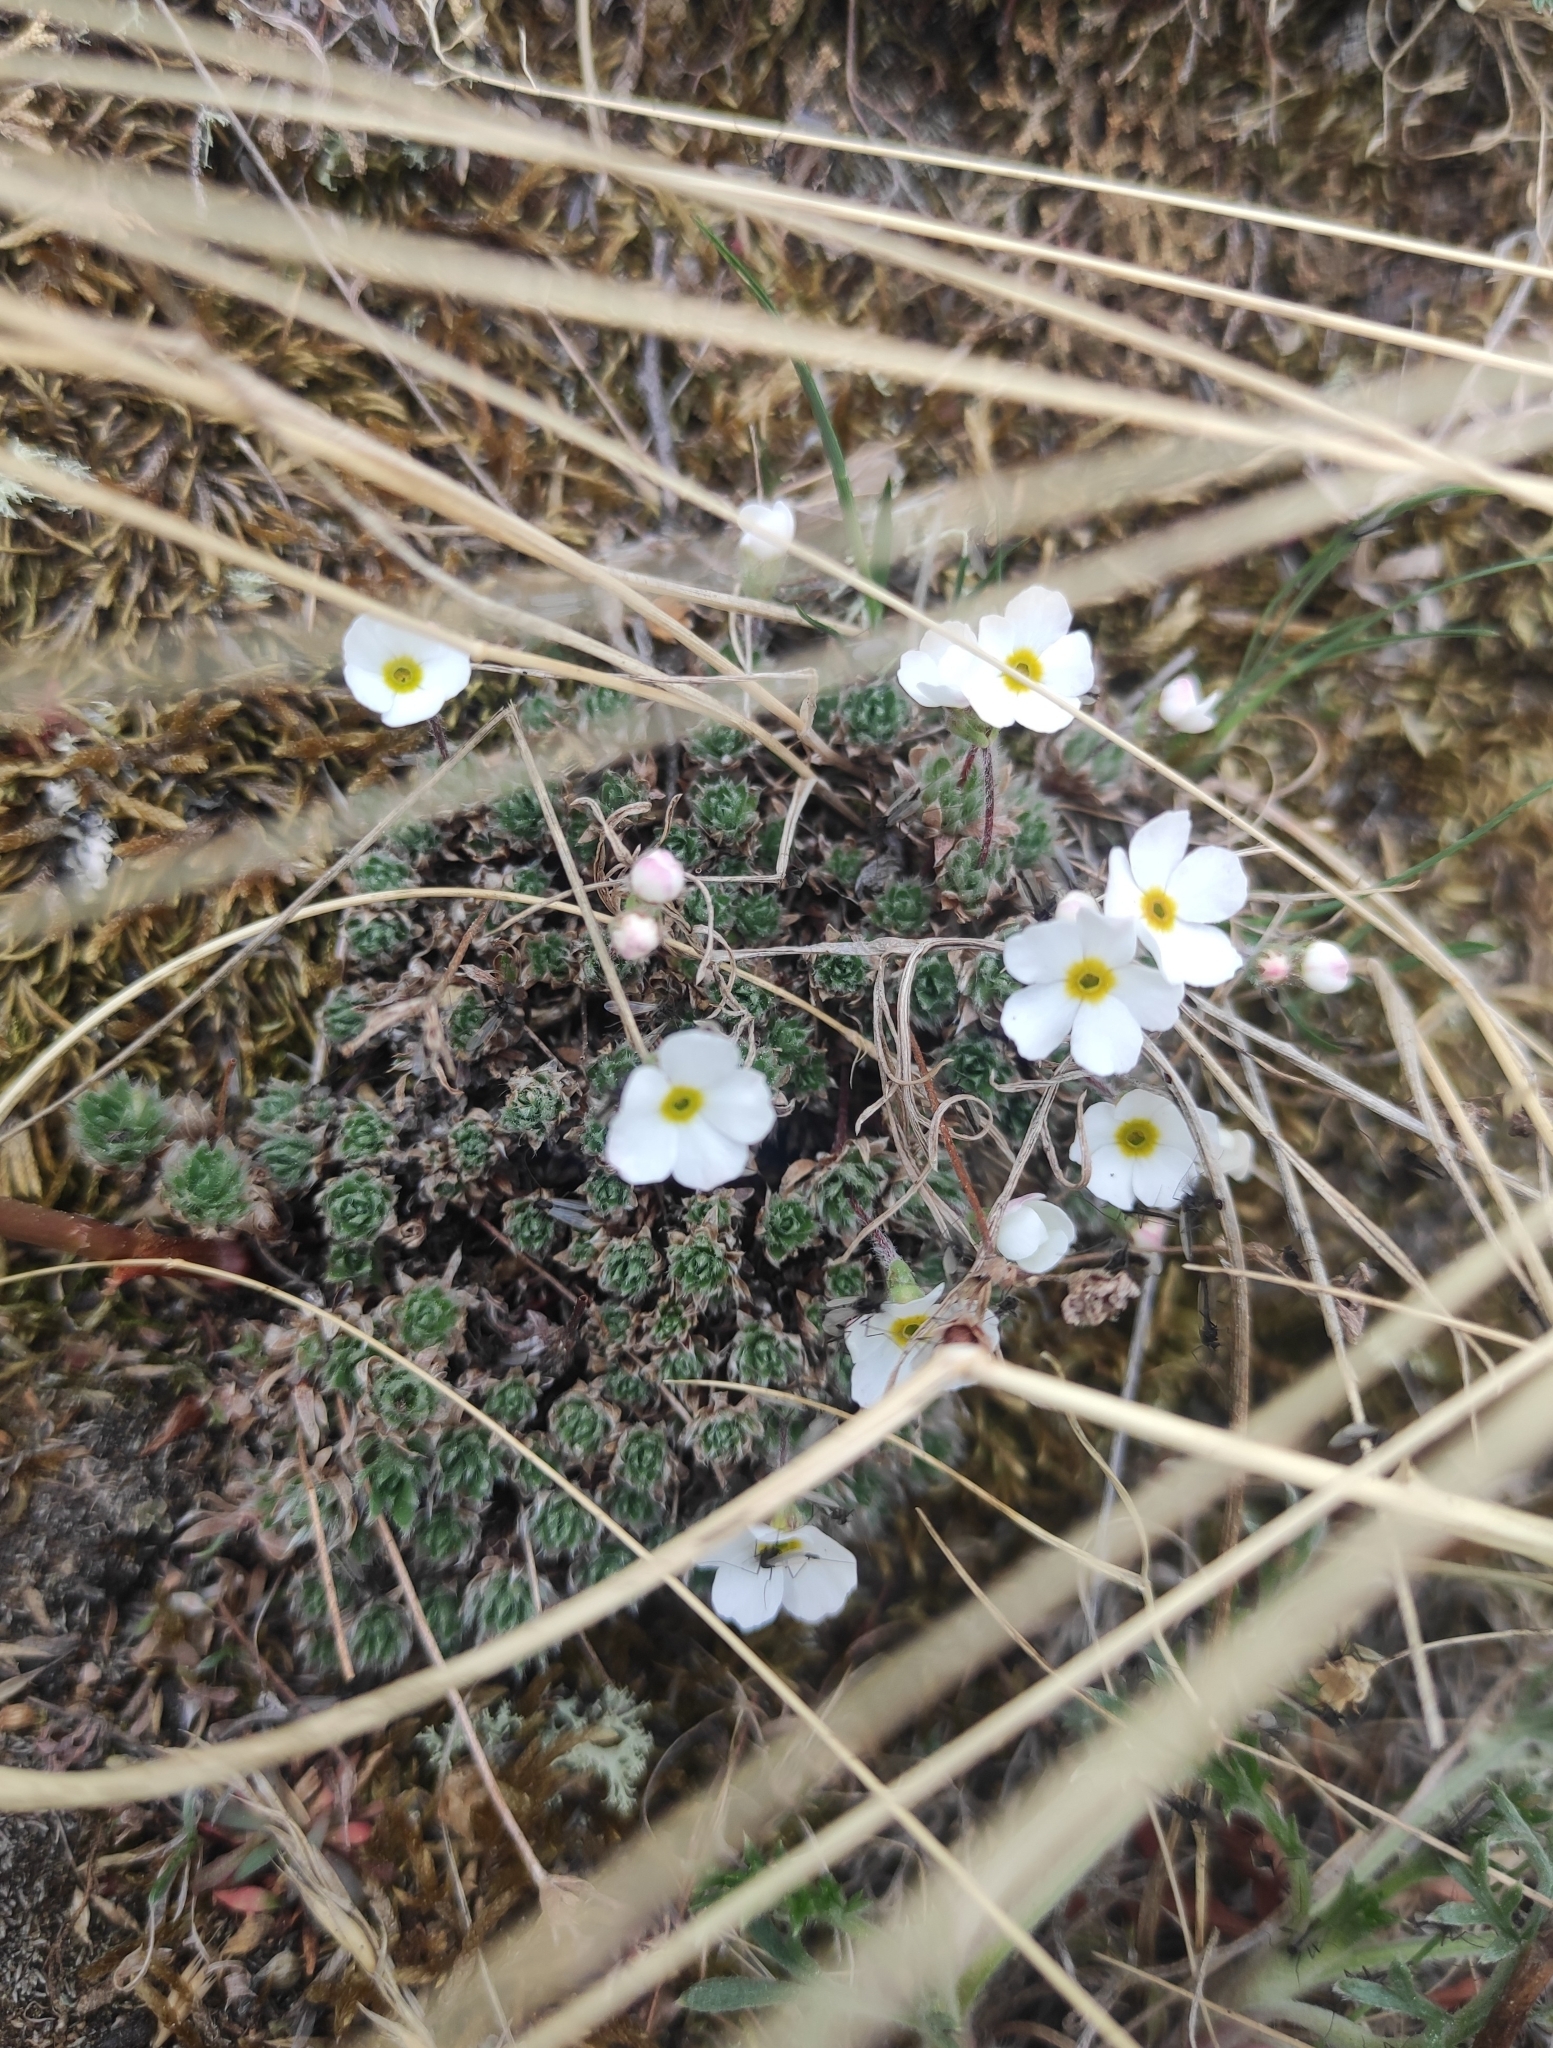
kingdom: Plantae
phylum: Tracheophyta
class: Magnoliopsida
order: Ericales
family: Primulaceae
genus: Androsace
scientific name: Androsace incana
